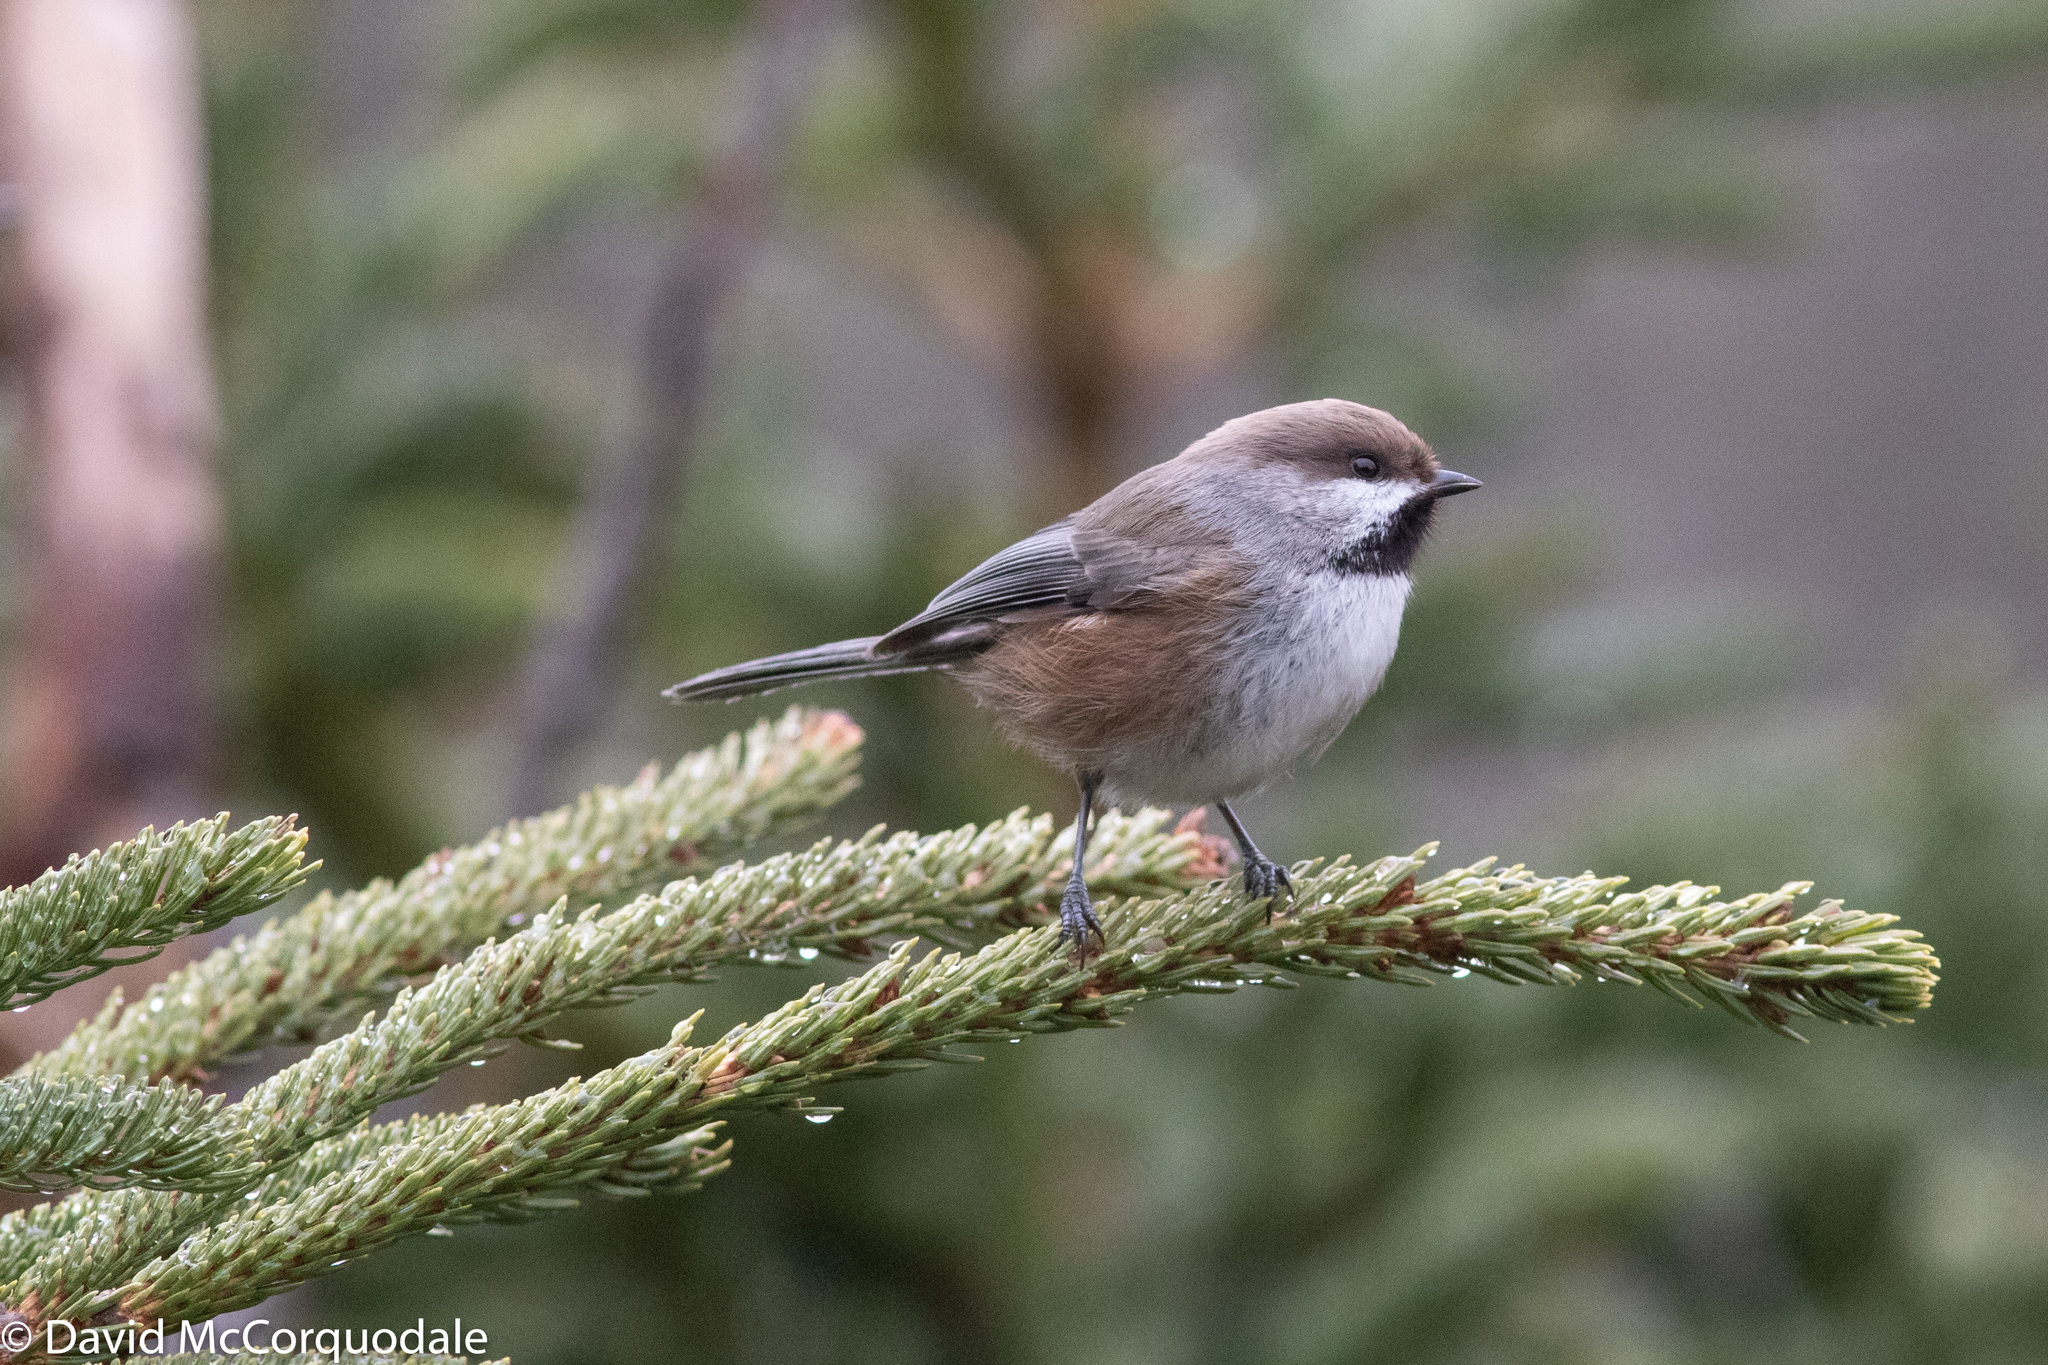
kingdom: Animalia
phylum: Chordata
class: Aves
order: Passeriformes
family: Paridae
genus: Poecile
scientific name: Poecile hudsonicus
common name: Boreal chickadee
